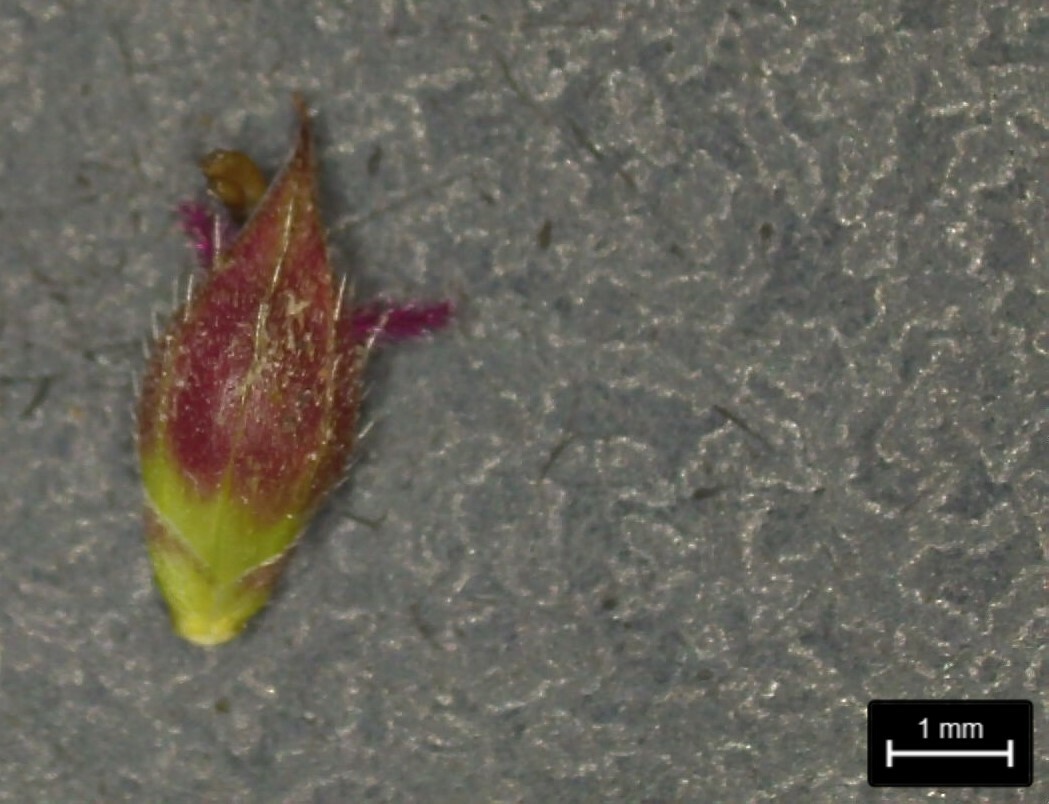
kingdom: Plantae
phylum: Tracheophyta
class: Liliopsida
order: Poales
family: Poaceae
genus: Echinochloa
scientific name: Echinochloa crus-galli
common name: Cockspur
